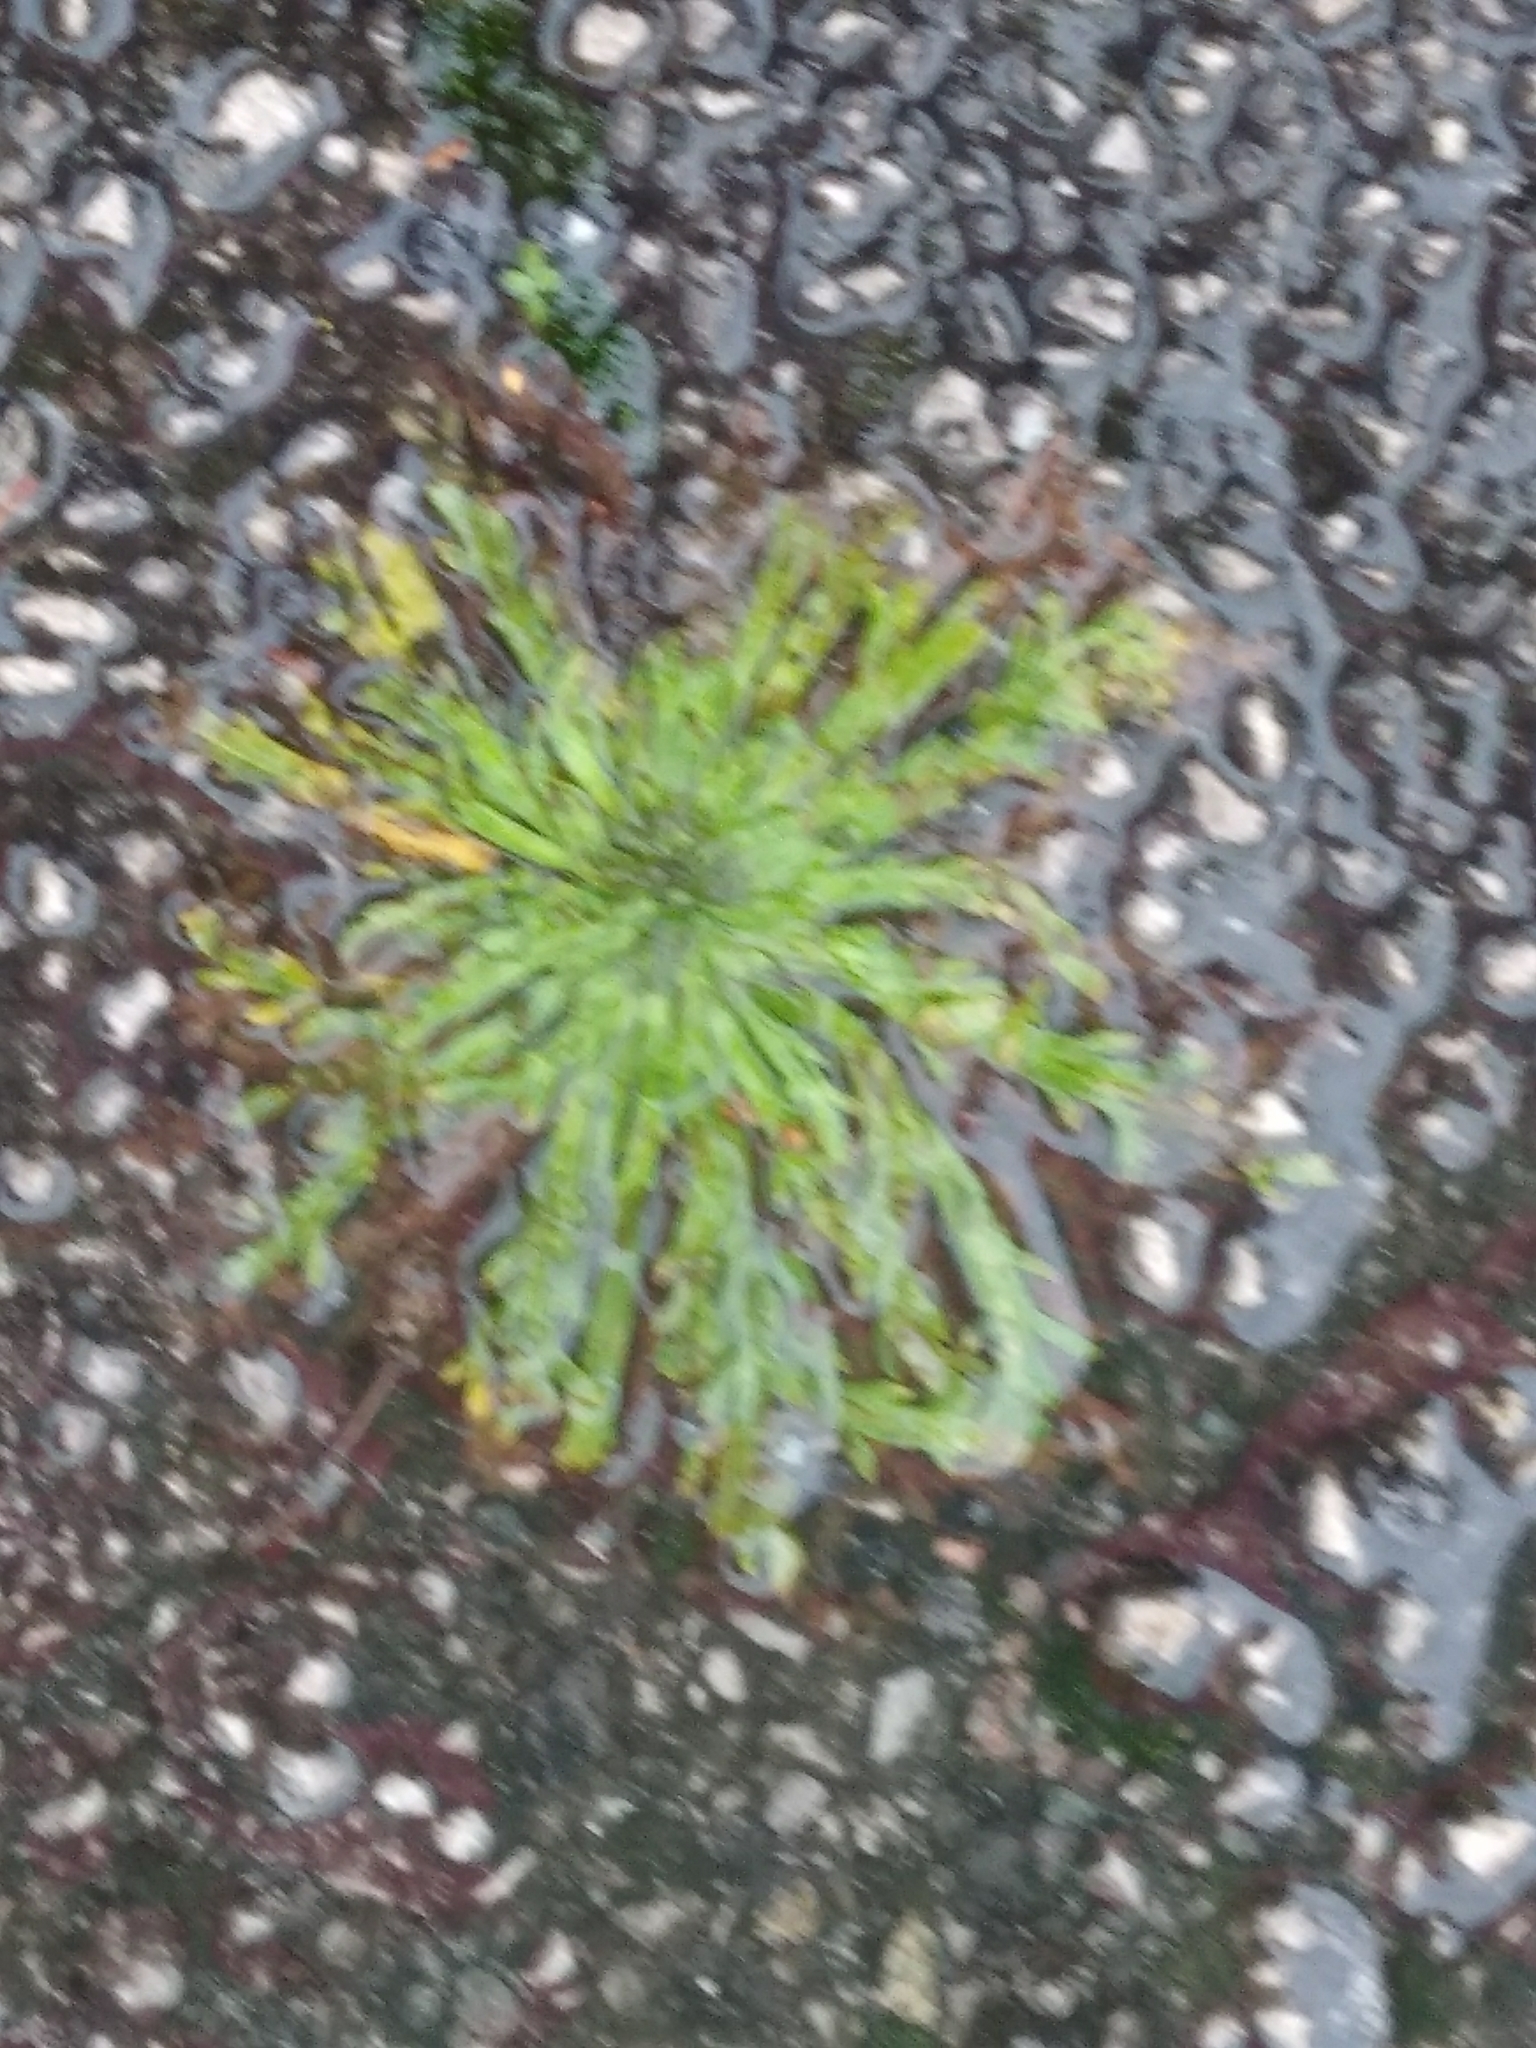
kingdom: Plantae
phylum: Tracheophyta
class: Magnoliopsida
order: Lamiales
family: Plantaginaceae
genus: Plantago
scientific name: Plantago coronopus
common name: Buck's-horn plantain
